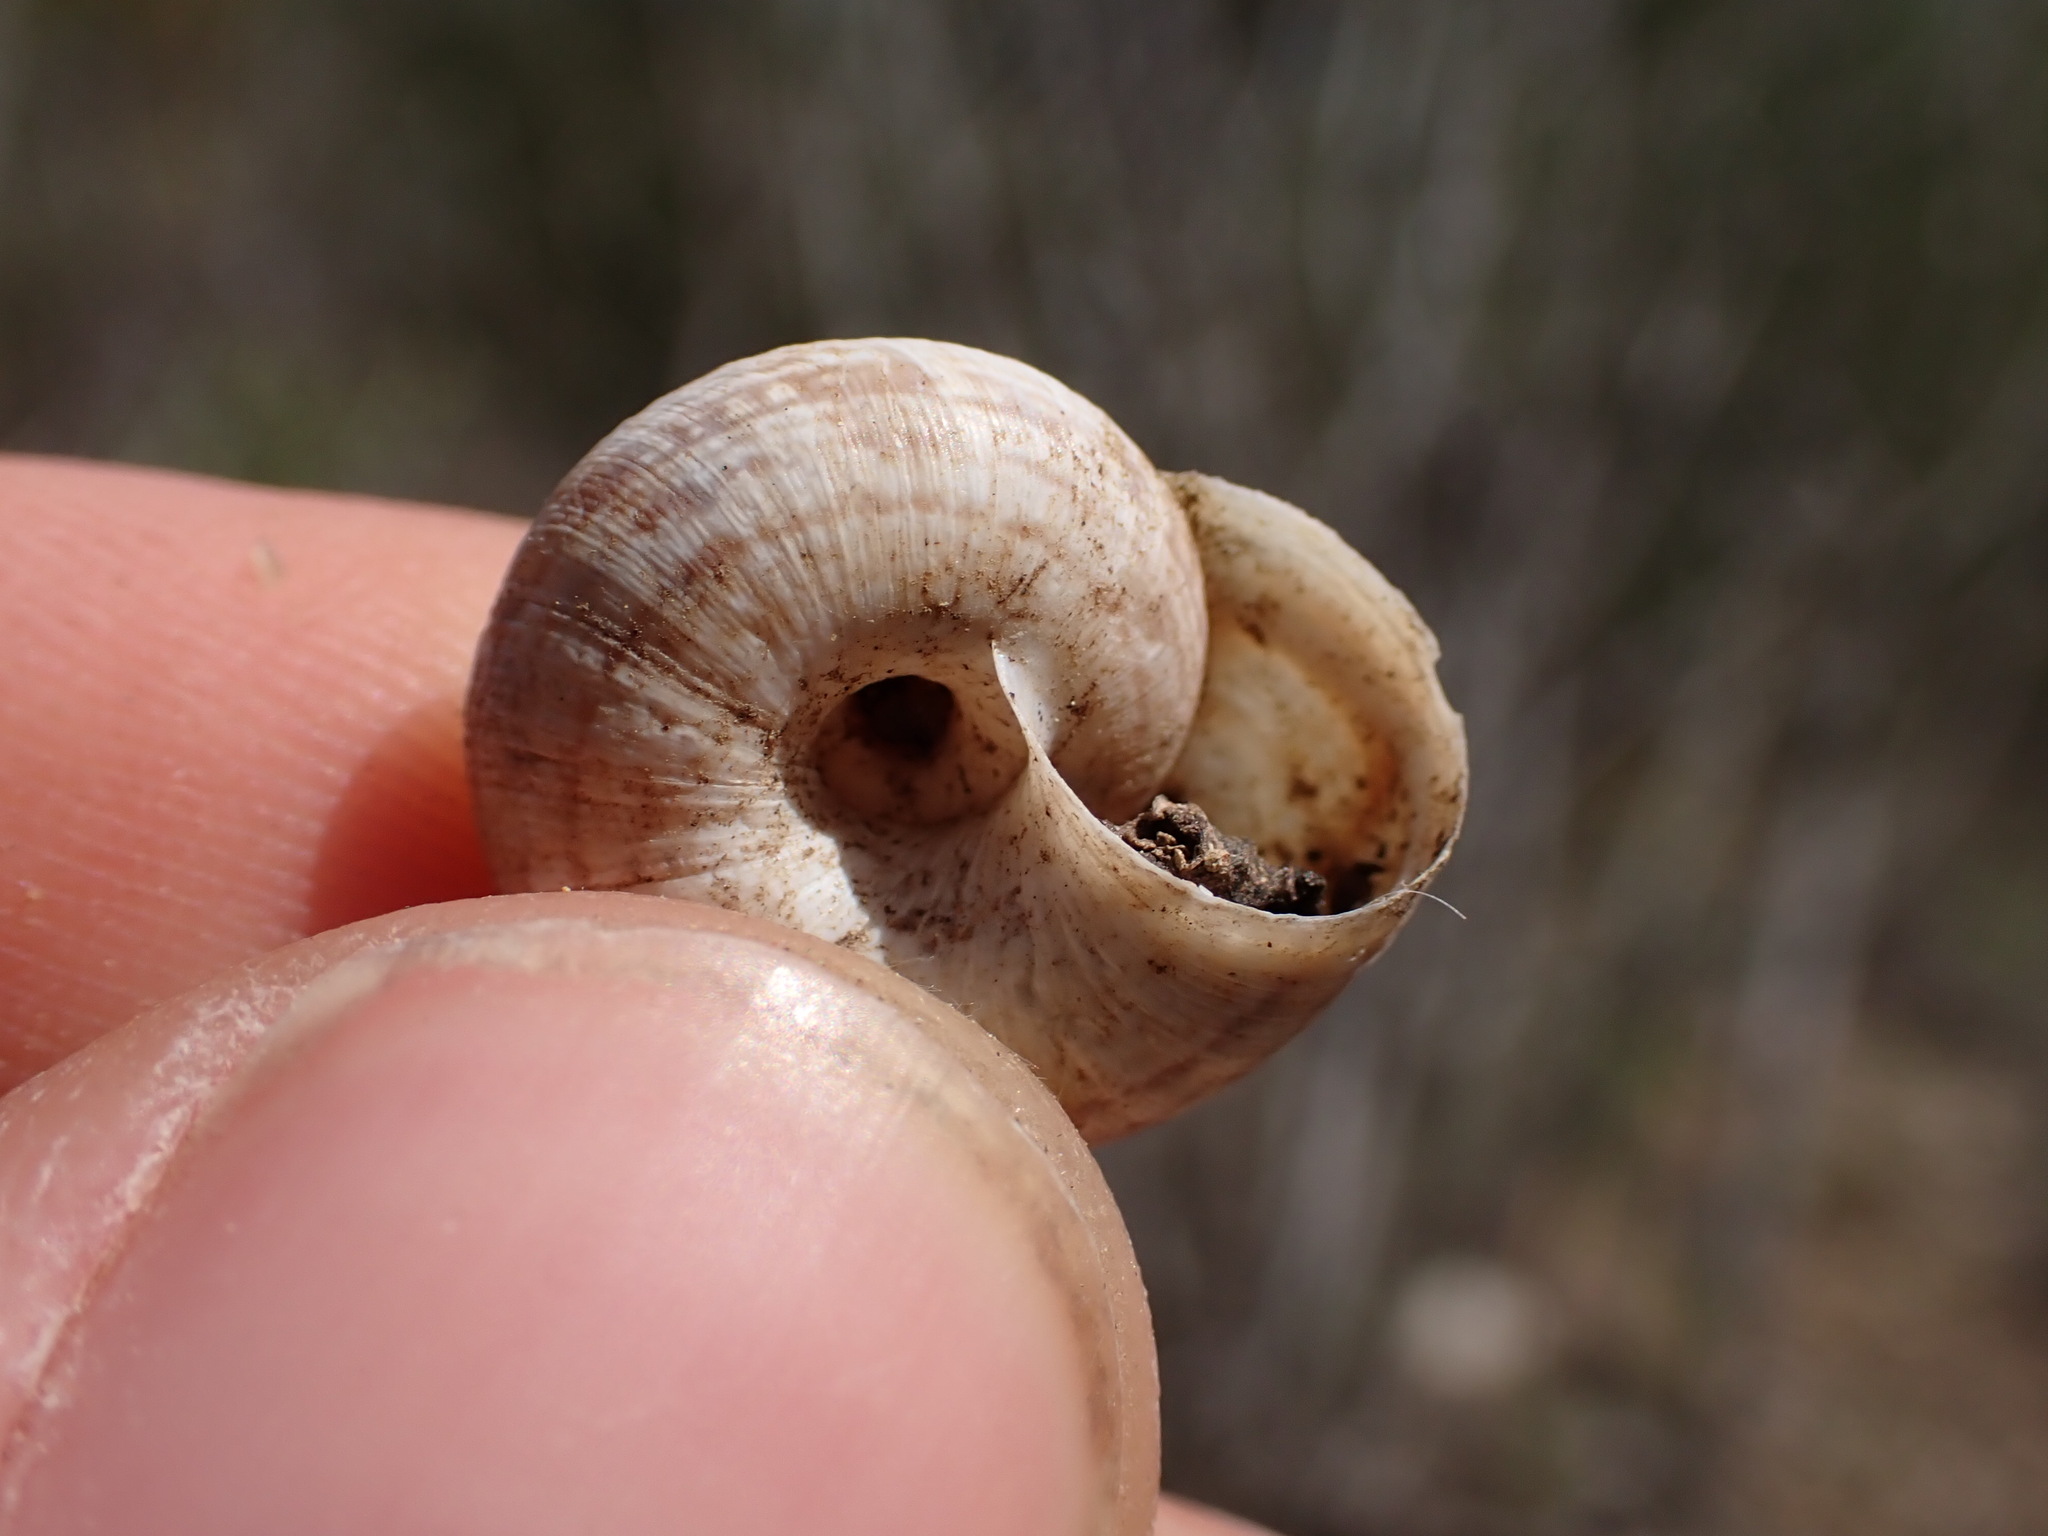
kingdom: Animalia
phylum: Mollusca
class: Gastropoda
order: Stylommatophora
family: Geomitridae
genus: Xerosecta
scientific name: Xerosecta cespitum
